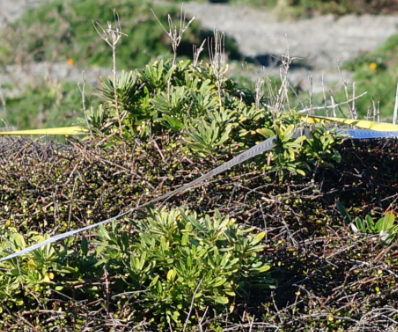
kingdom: Plantae
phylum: Tracheophyta
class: Magnoliopsida
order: Brassicales
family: Brassicaceae
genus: Erysimum
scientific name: Erysimum cheiri
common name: Wallflower
